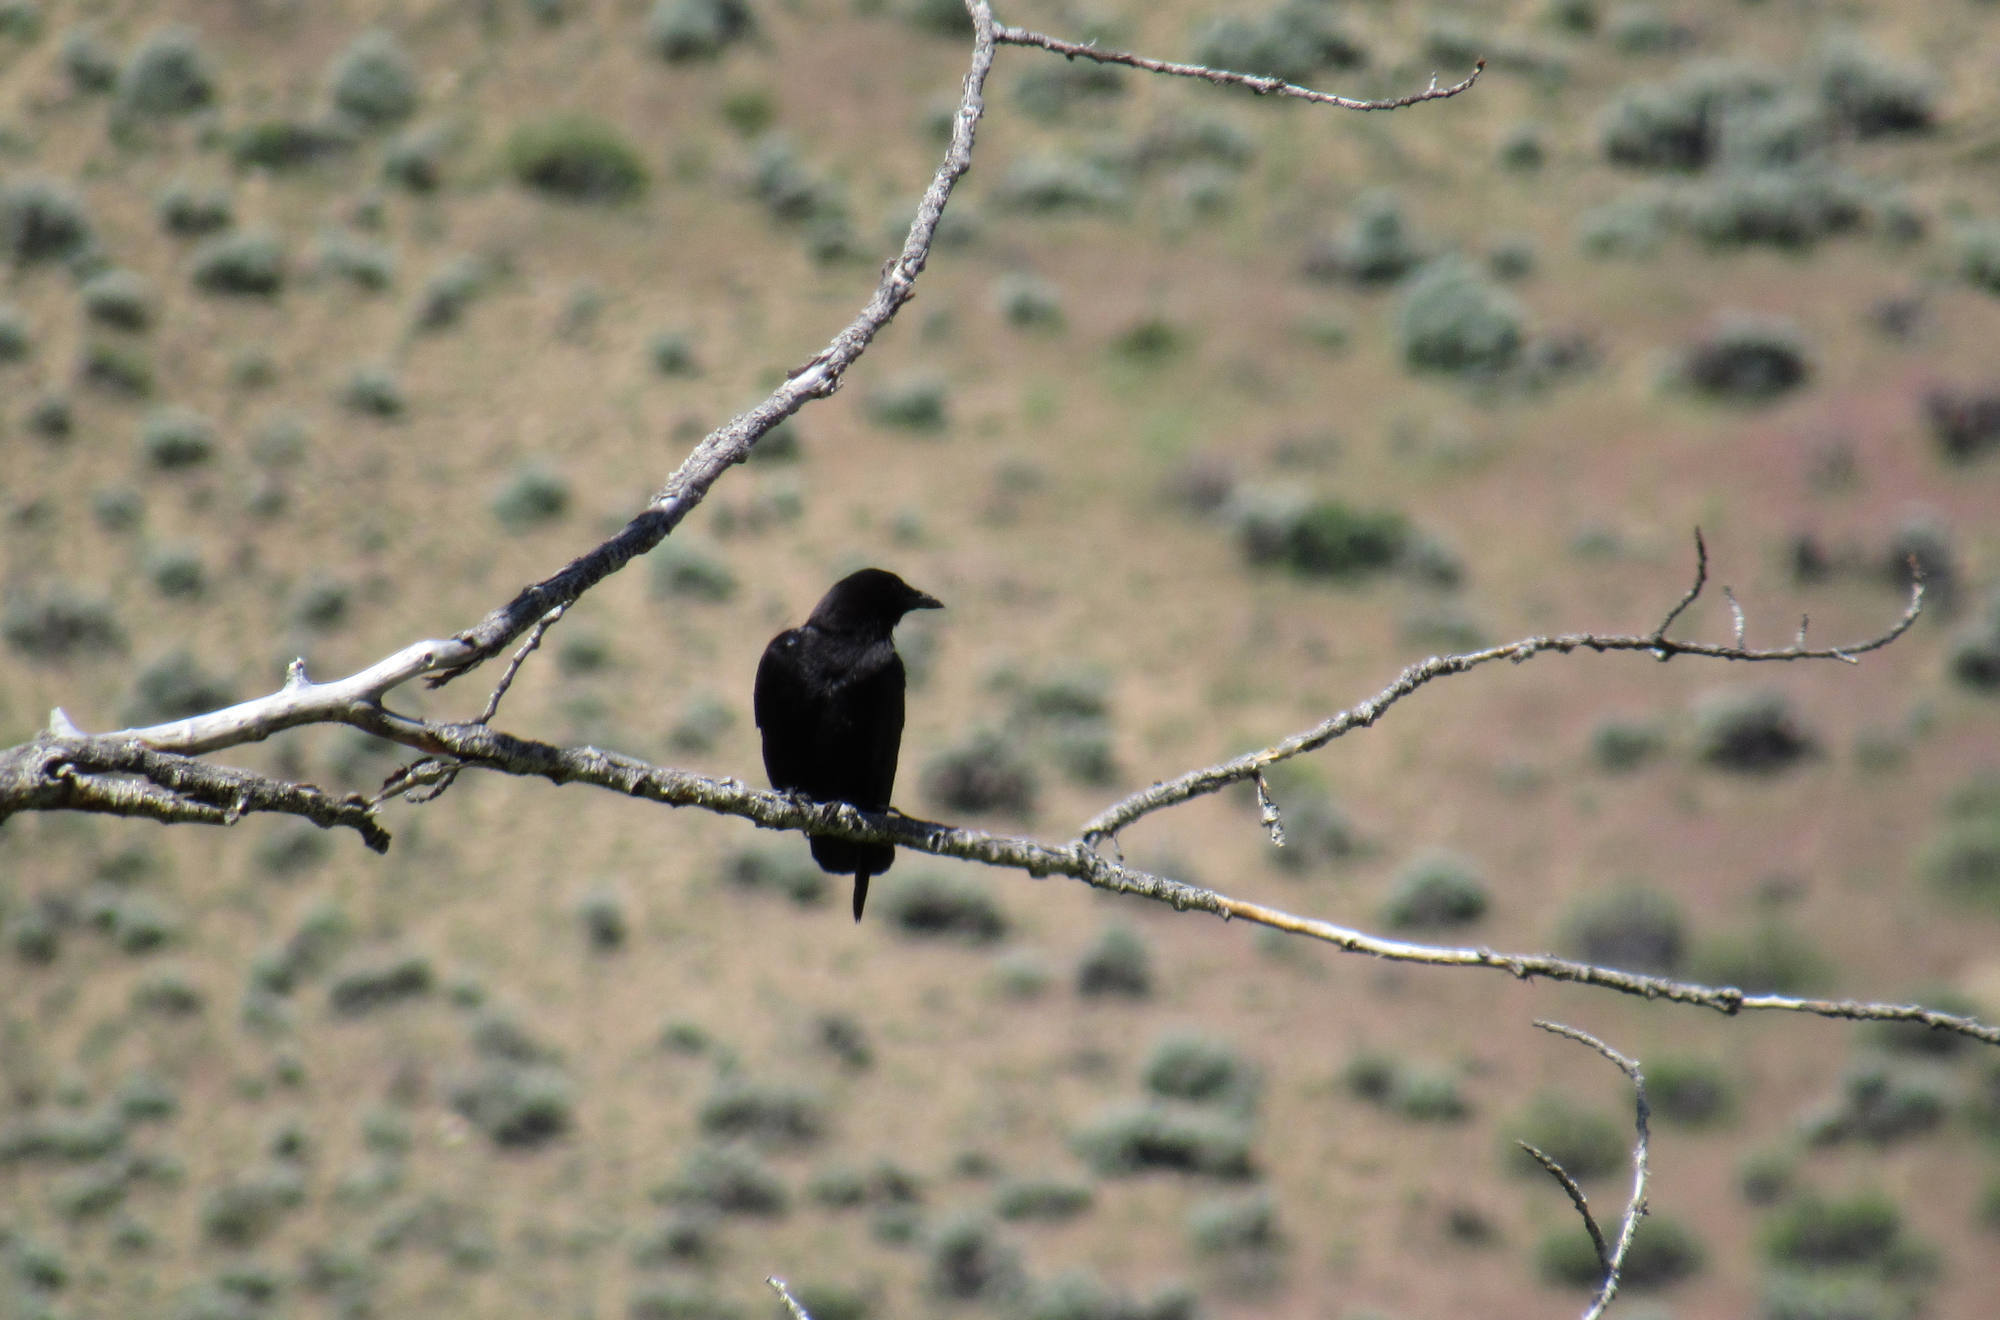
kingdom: Animalia
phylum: Chordata
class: Aves
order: Passeriformes
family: Corvidae
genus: Corvus
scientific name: Corvus brachyrhynchos
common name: American crow
